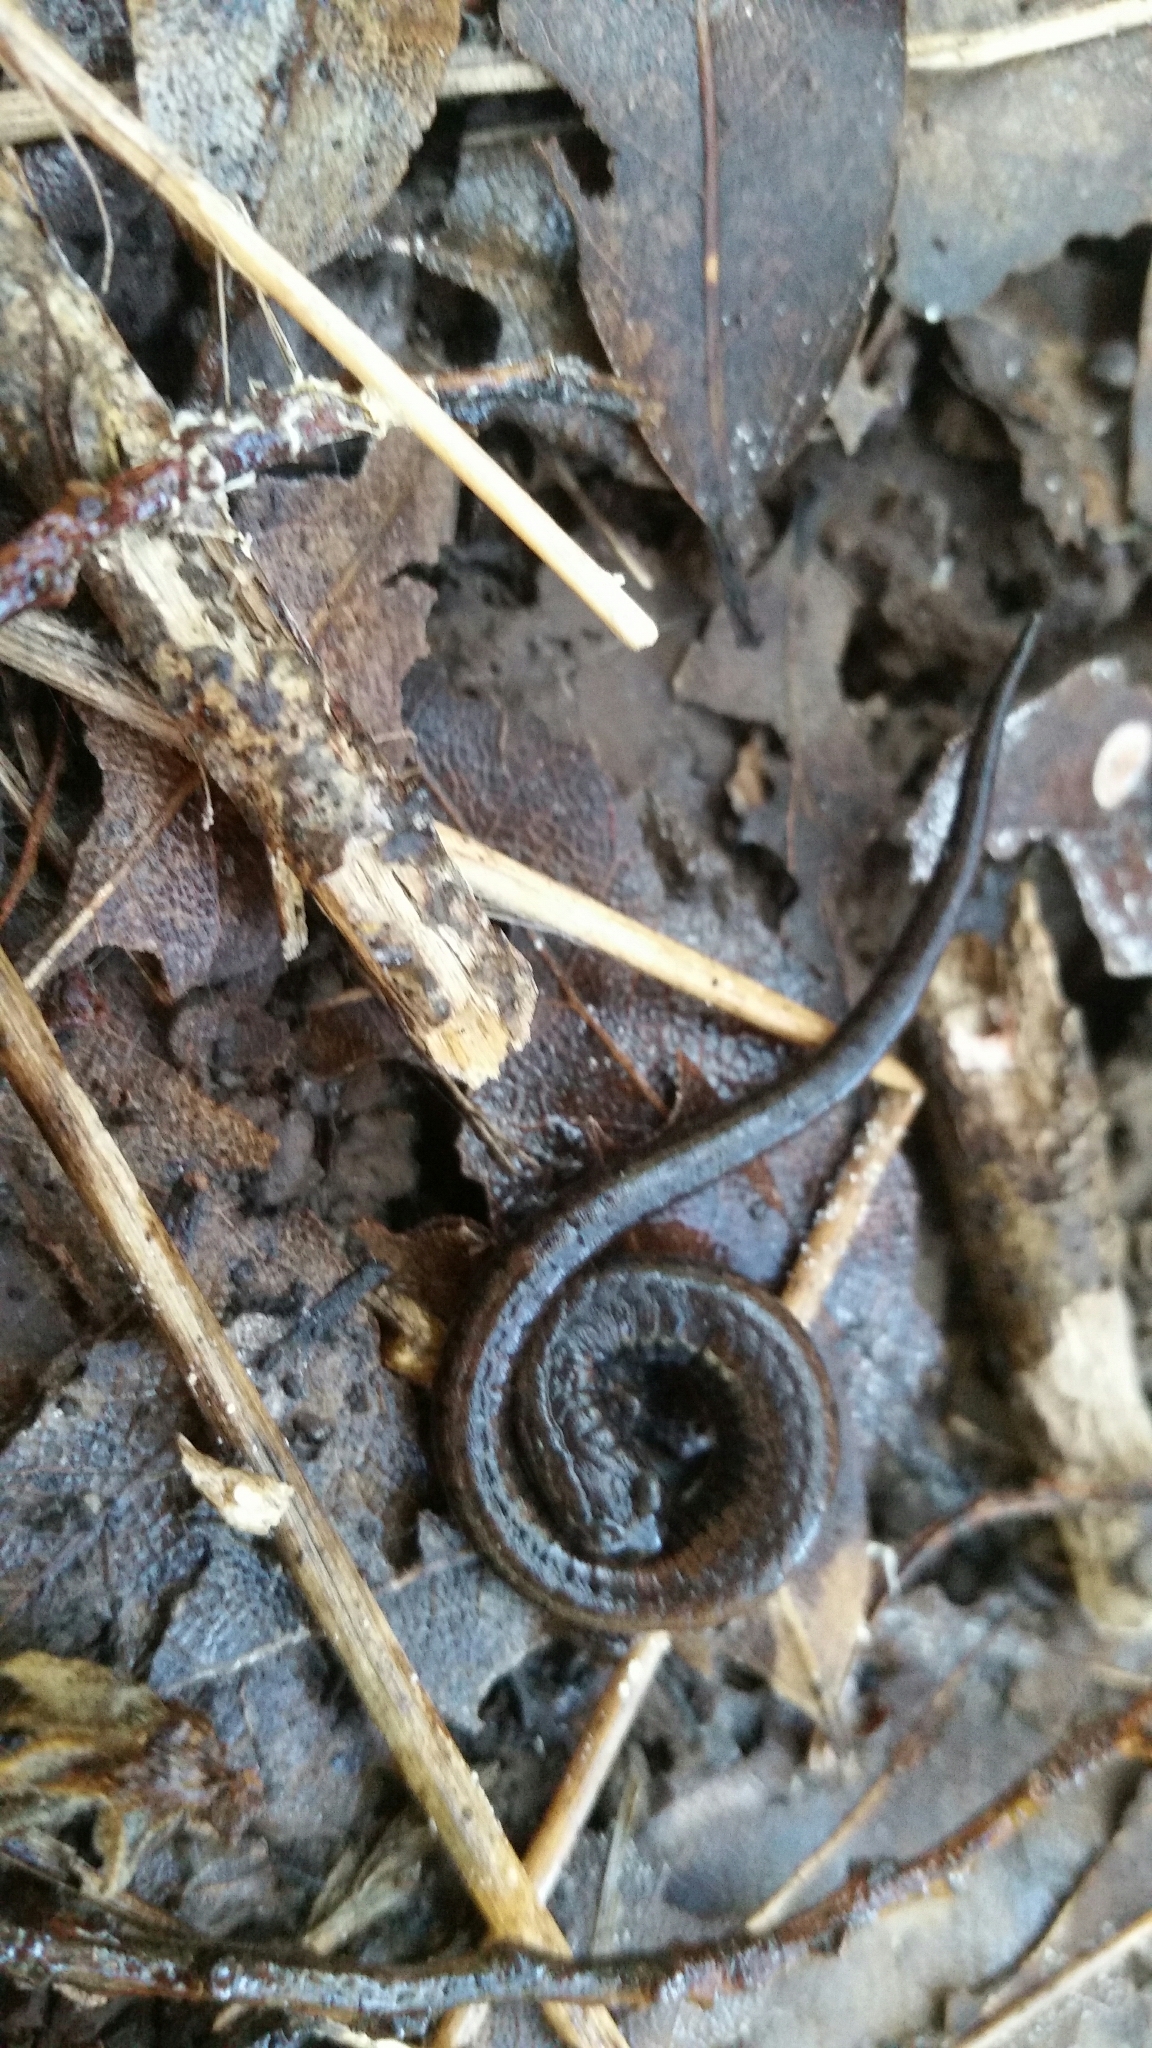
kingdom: Animalia
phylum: Chordata
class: Amphibia
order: Caudata
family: Plethodontidae
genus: Batrachoseps
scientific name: Batrachoseps attenuatus
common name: California slender salamander
